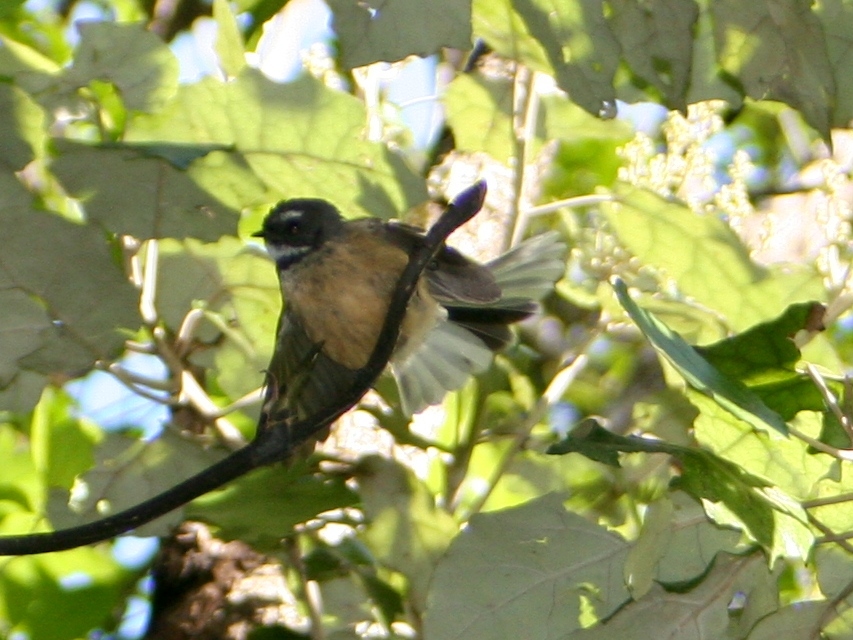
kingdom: Animalia
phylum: Chordata
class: Aves
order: Passeriformes
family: Rhipiduridae
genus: Rhipidura
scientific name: Rhipidura fuliginosa
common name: New zealand fantail
